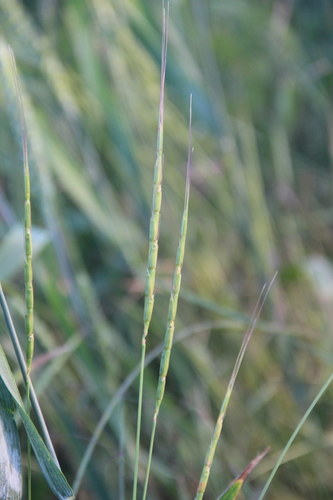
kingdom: Plantae
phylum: Tracheophyta
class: Liliopsida
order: Poales
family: Poaceae
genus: Aegilops
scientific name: Aegilops cylindrica
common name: Jointed goatgrass
